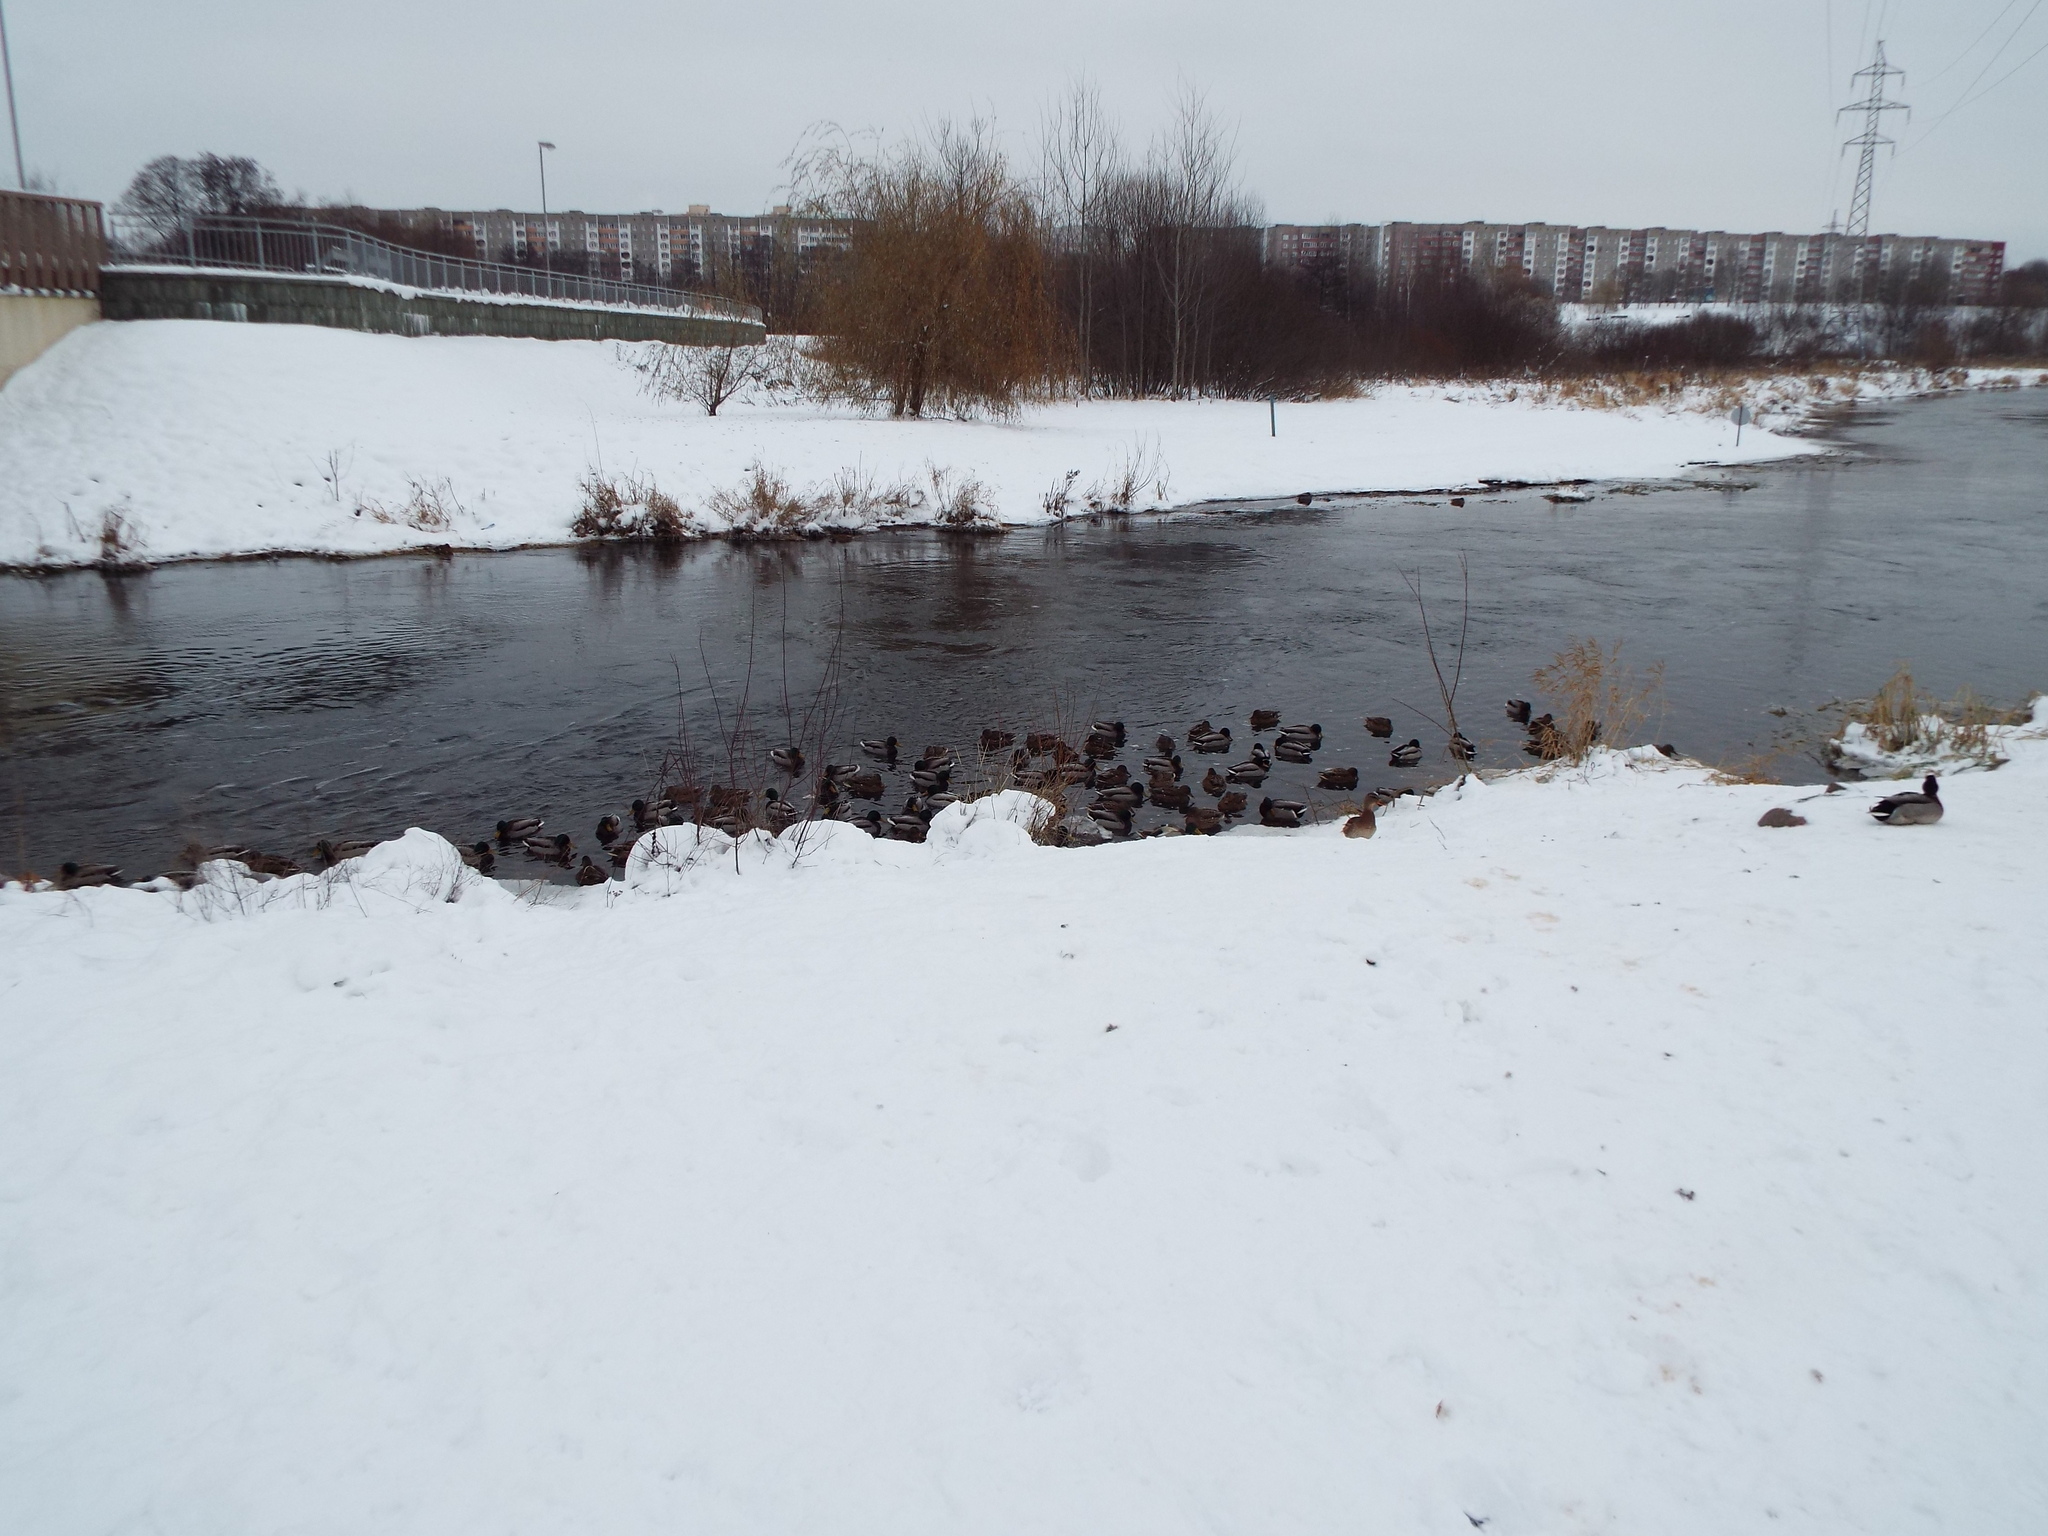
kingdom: Animalia
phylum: Chordata
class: Aves
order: Anseriformes
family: Anatidae
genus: Anas
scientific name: Anas platyrhynchos
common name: Mallard
